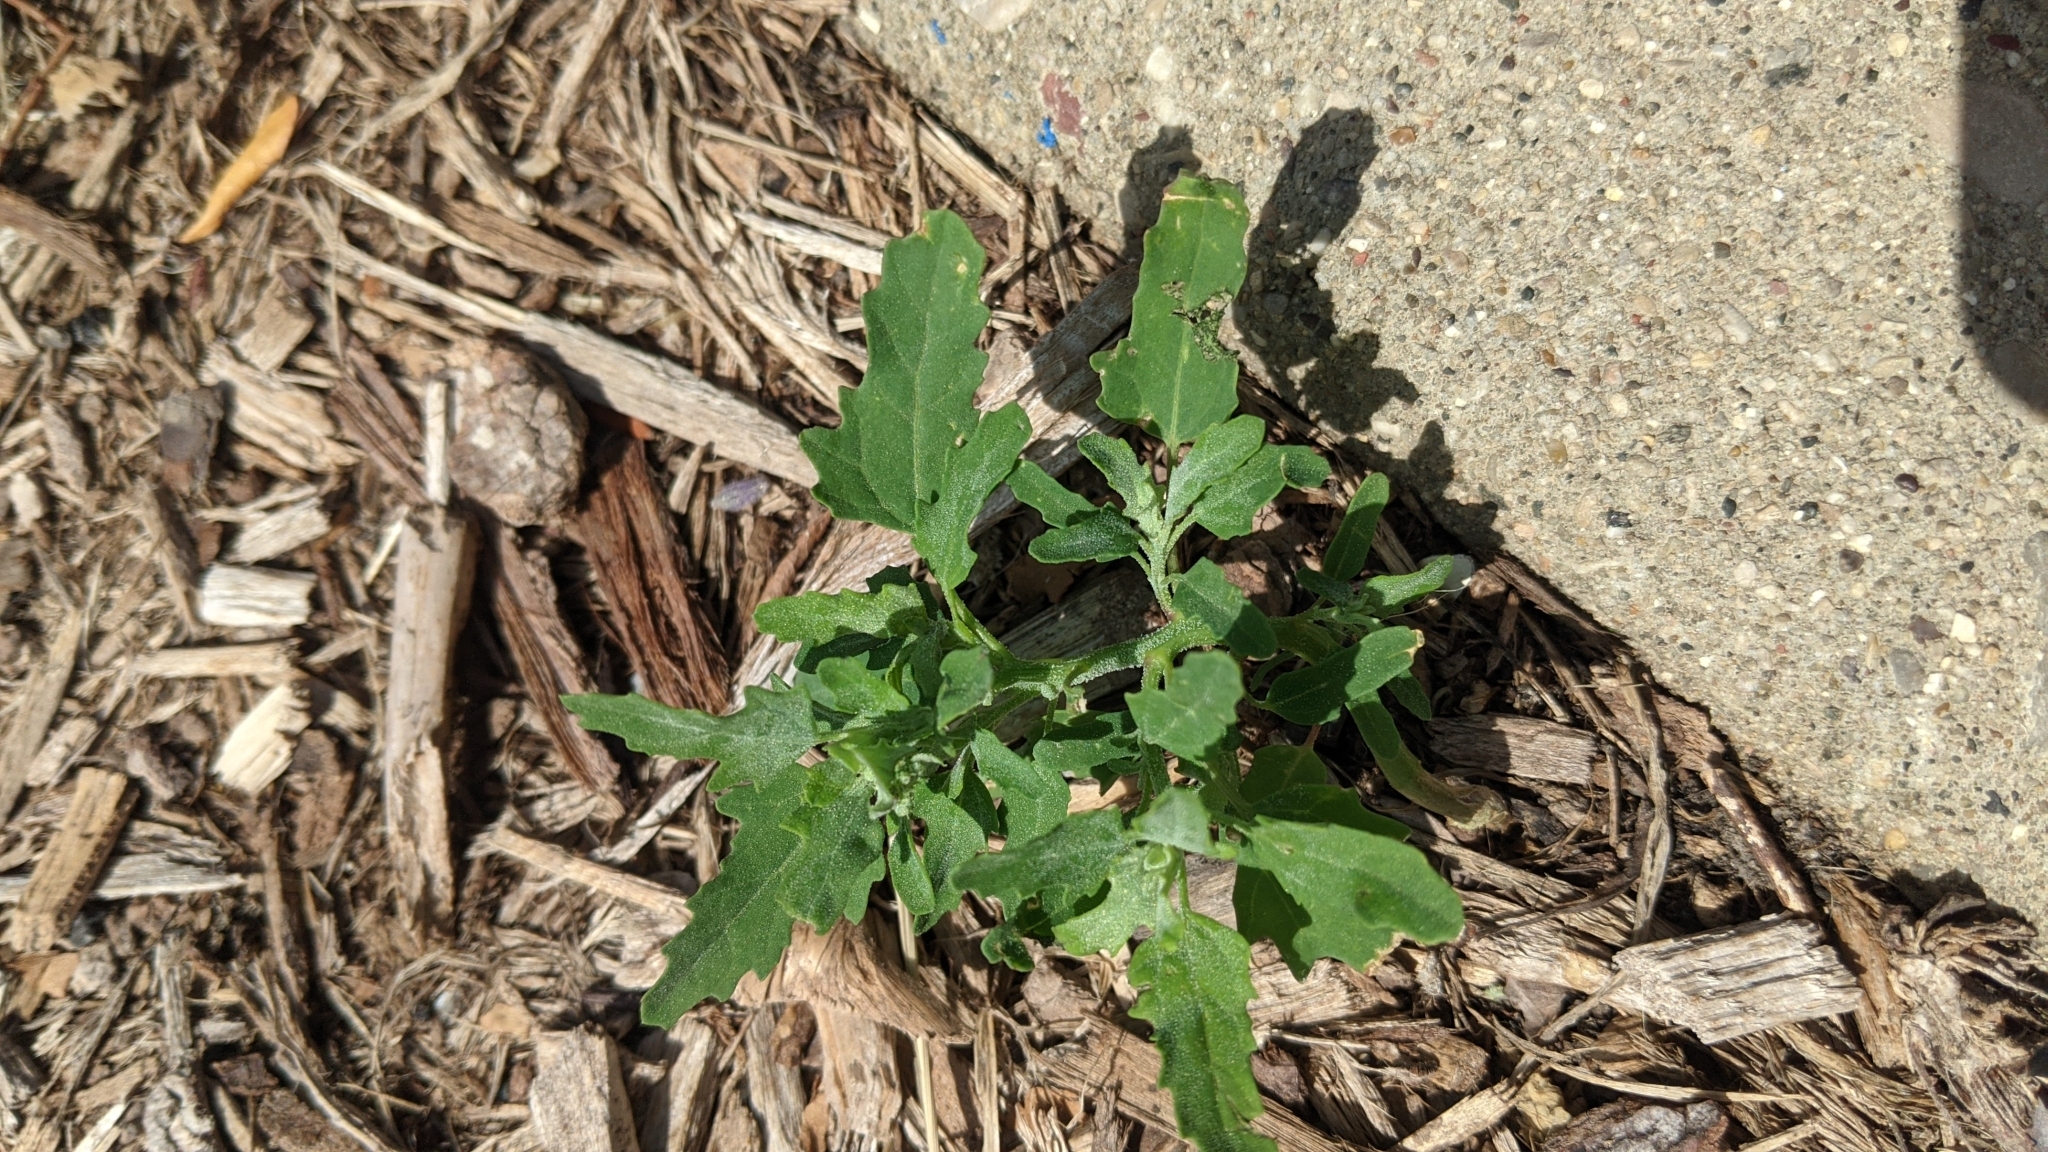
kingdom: Plantae
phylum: Tracheophyta
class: Magnoliopsida
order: Caryophyllales
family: Amaranthaceae
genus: Chenopodium
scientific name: Chenopodium album
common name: Fat-hen
